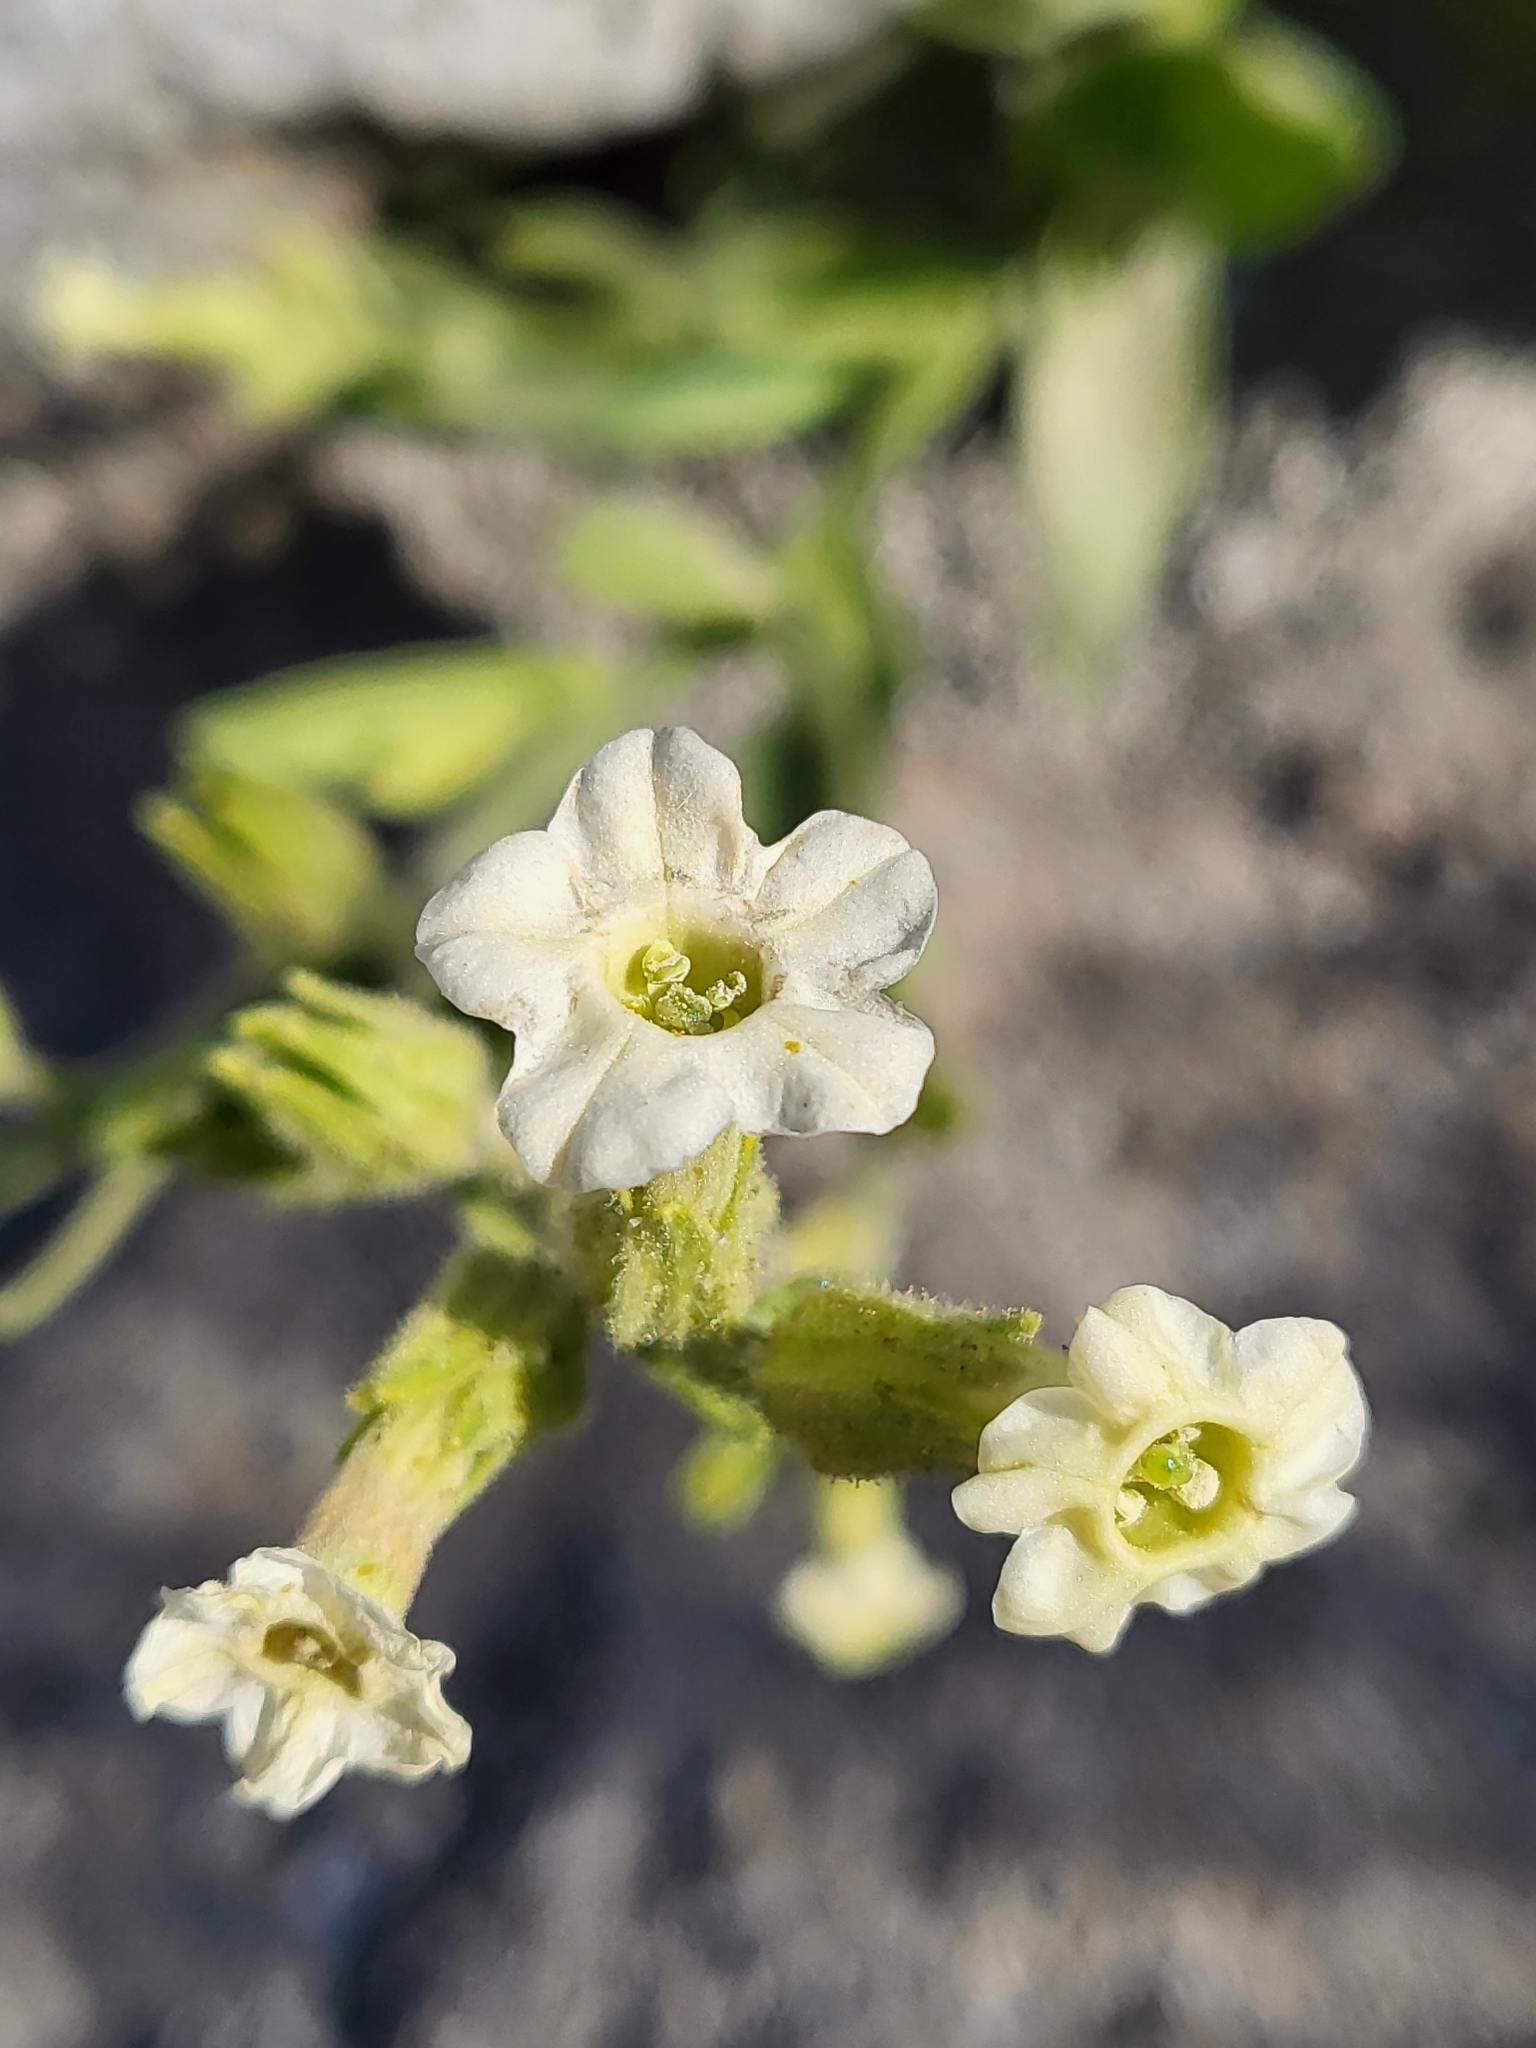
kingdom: Plantae
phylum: Tracheophyta
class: Magnoliopsida
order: Solanales
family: Solanaceae
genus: Nicotiana
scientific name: Nicotiana obtusifolia
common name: Desert tobacco
